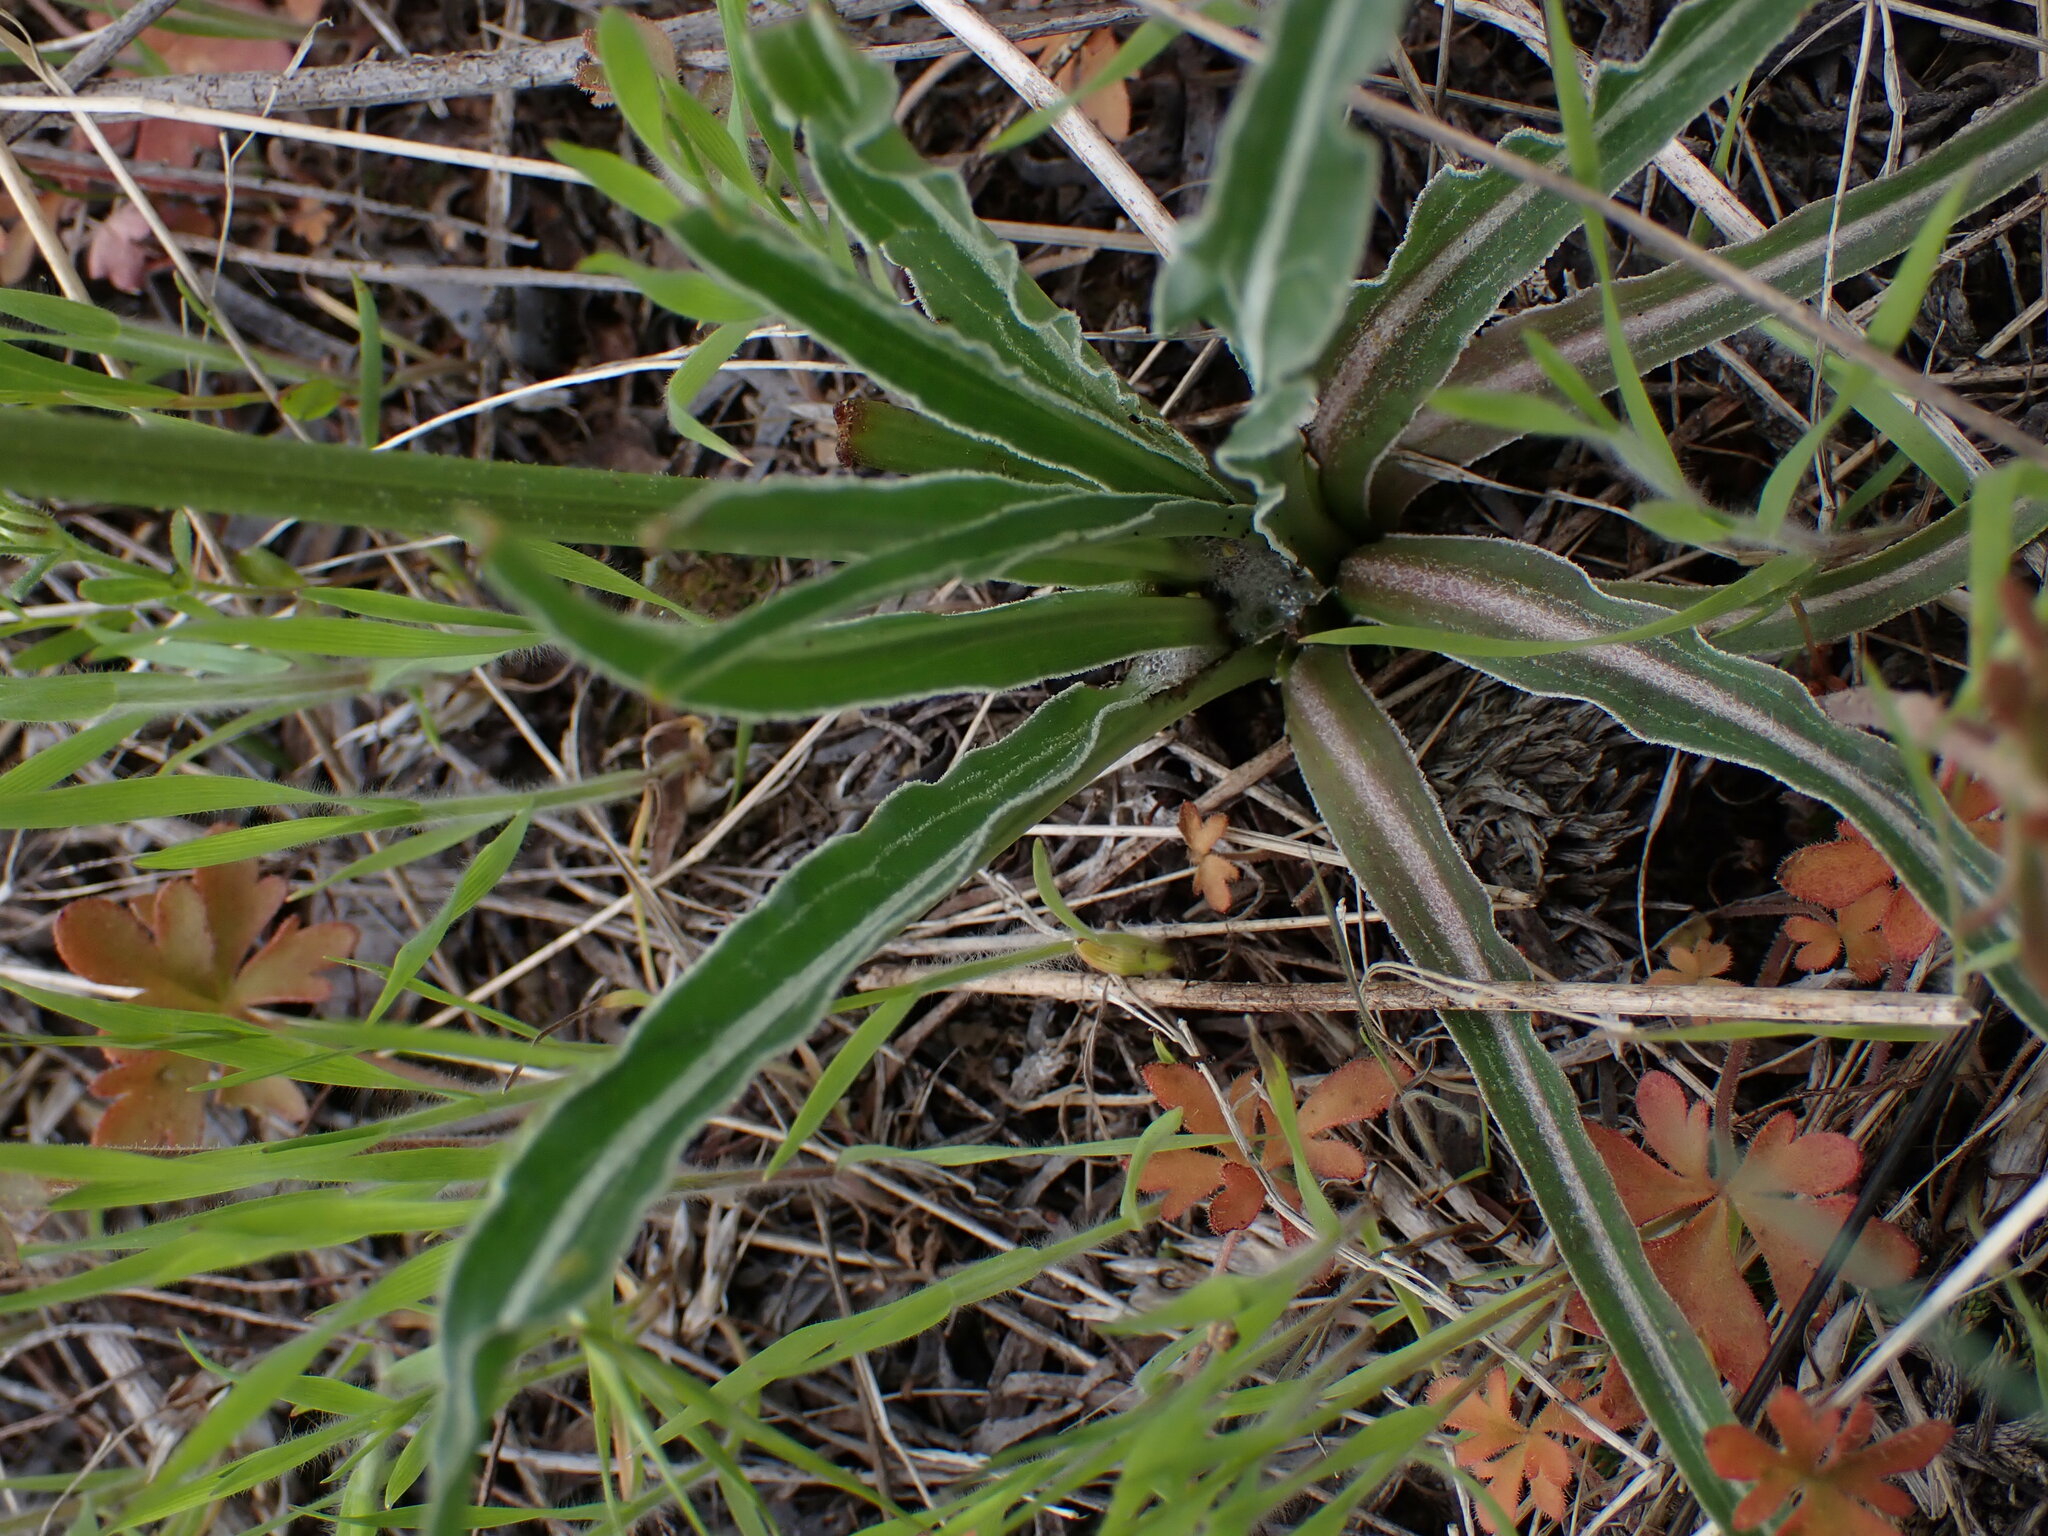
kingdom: Plantae
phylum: Tracheophyta
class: Magnoliopsida
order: Asterales
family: Asteraceae
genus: Microseris
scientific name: Microseris troximoides
